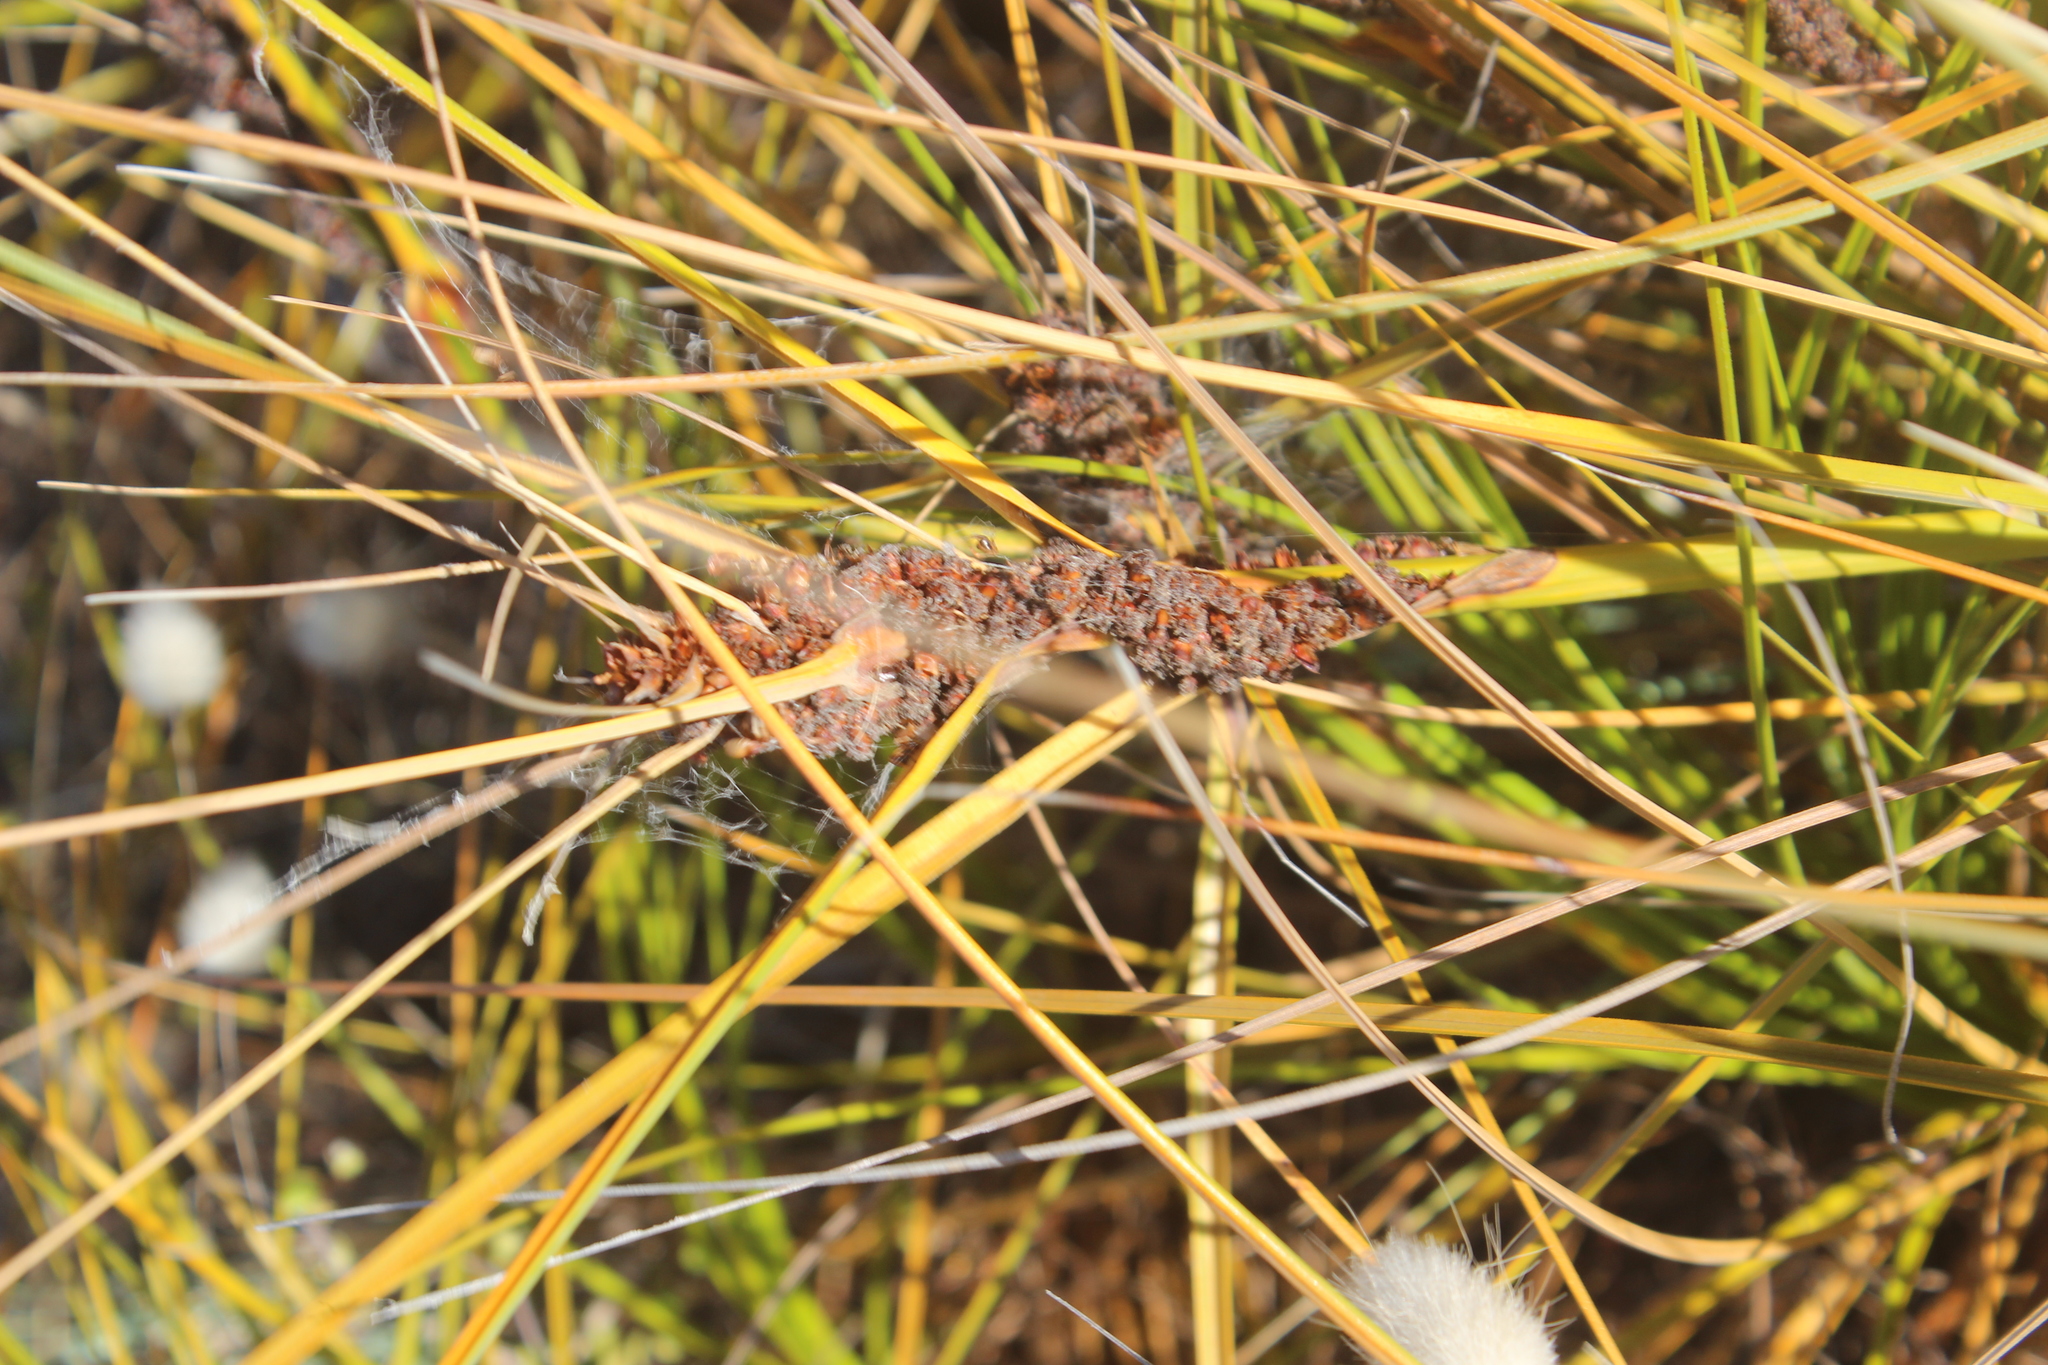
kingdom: Plantae
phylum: Tracheophyta
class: Liliopsida
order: Poales
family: Cyperaceae
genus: Ficinia
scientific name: Ficinia spiralis
